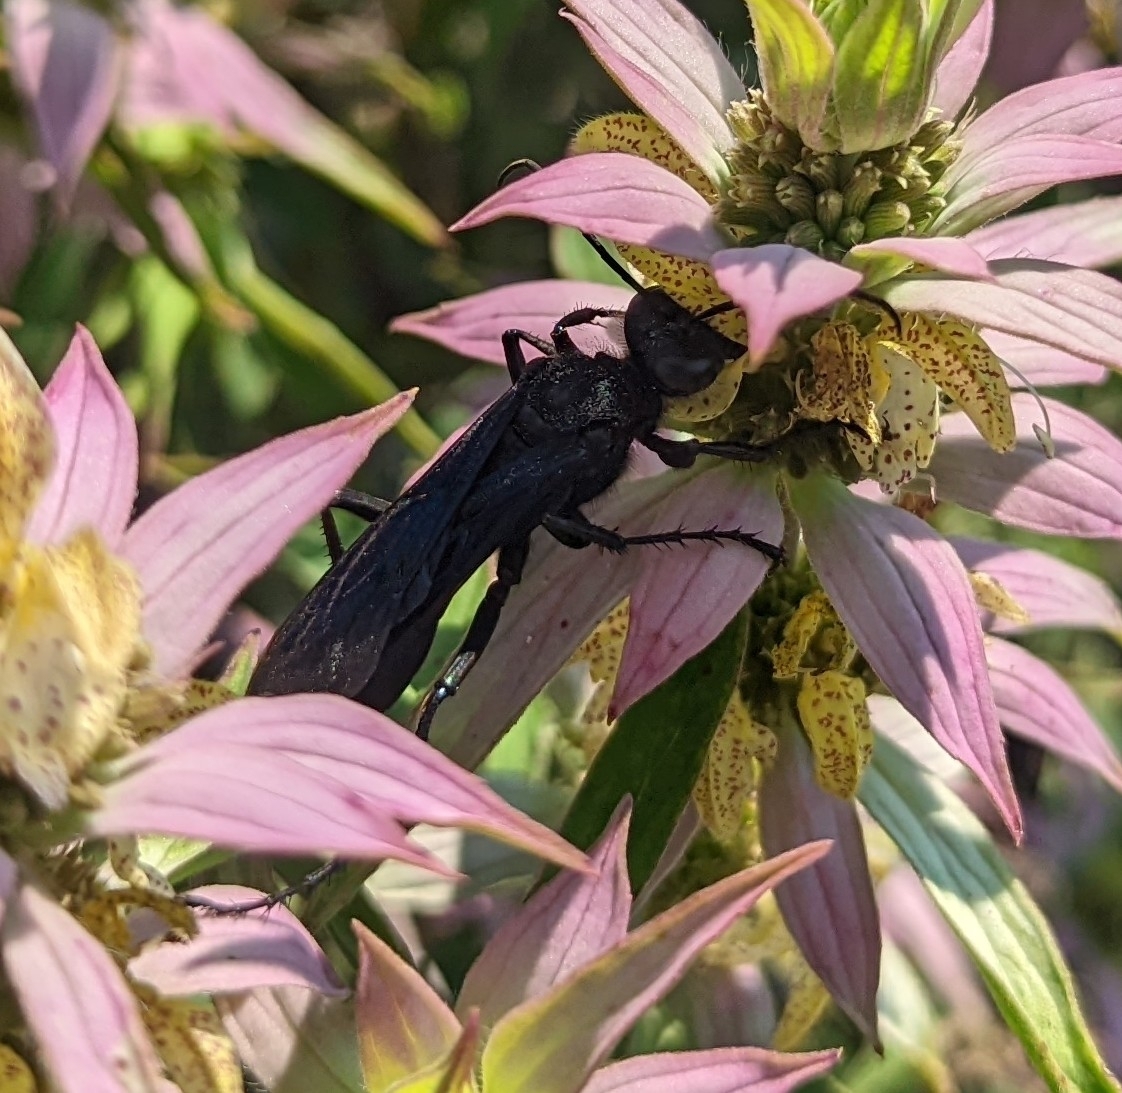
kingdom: Animalia
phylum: Arthropoda
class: Insecta
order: Hymenoptera
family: Sphecidae
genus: Sphex
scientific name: Sphex pensylvanicus
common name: Great black digger wasp
